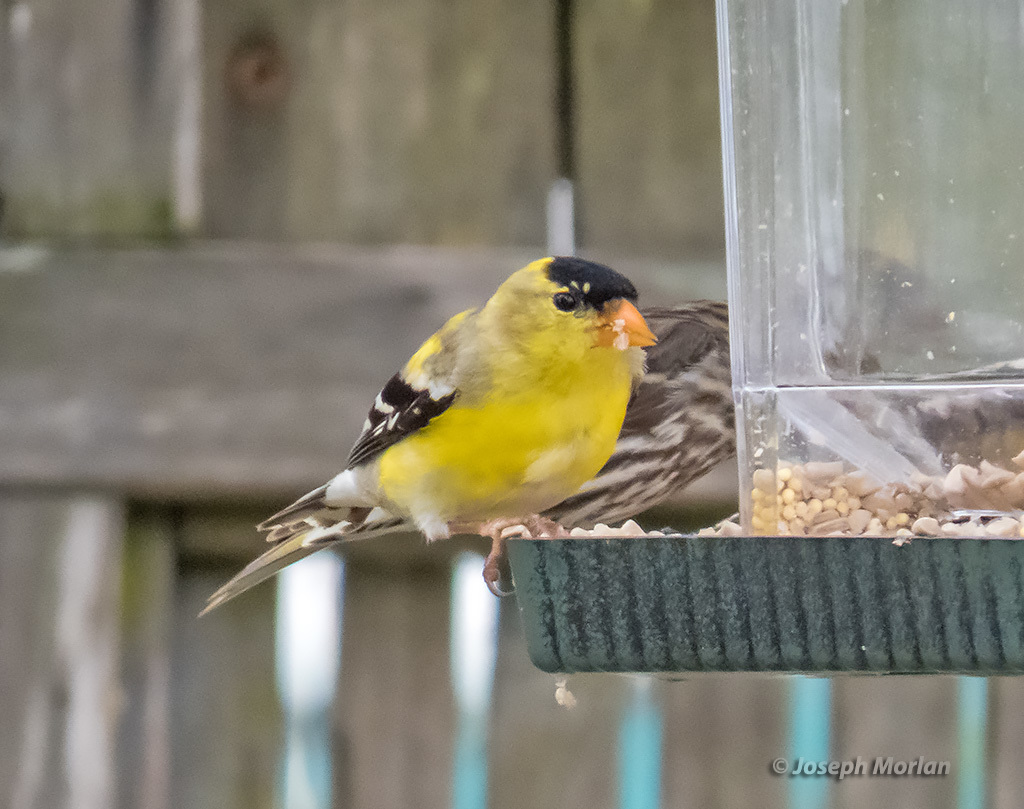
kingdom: Animalia
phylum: Chordata
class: Aves
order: Passeriformes
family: Fringillidae
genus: Spinus
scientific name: Spinus tristis
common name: American goldfinch
